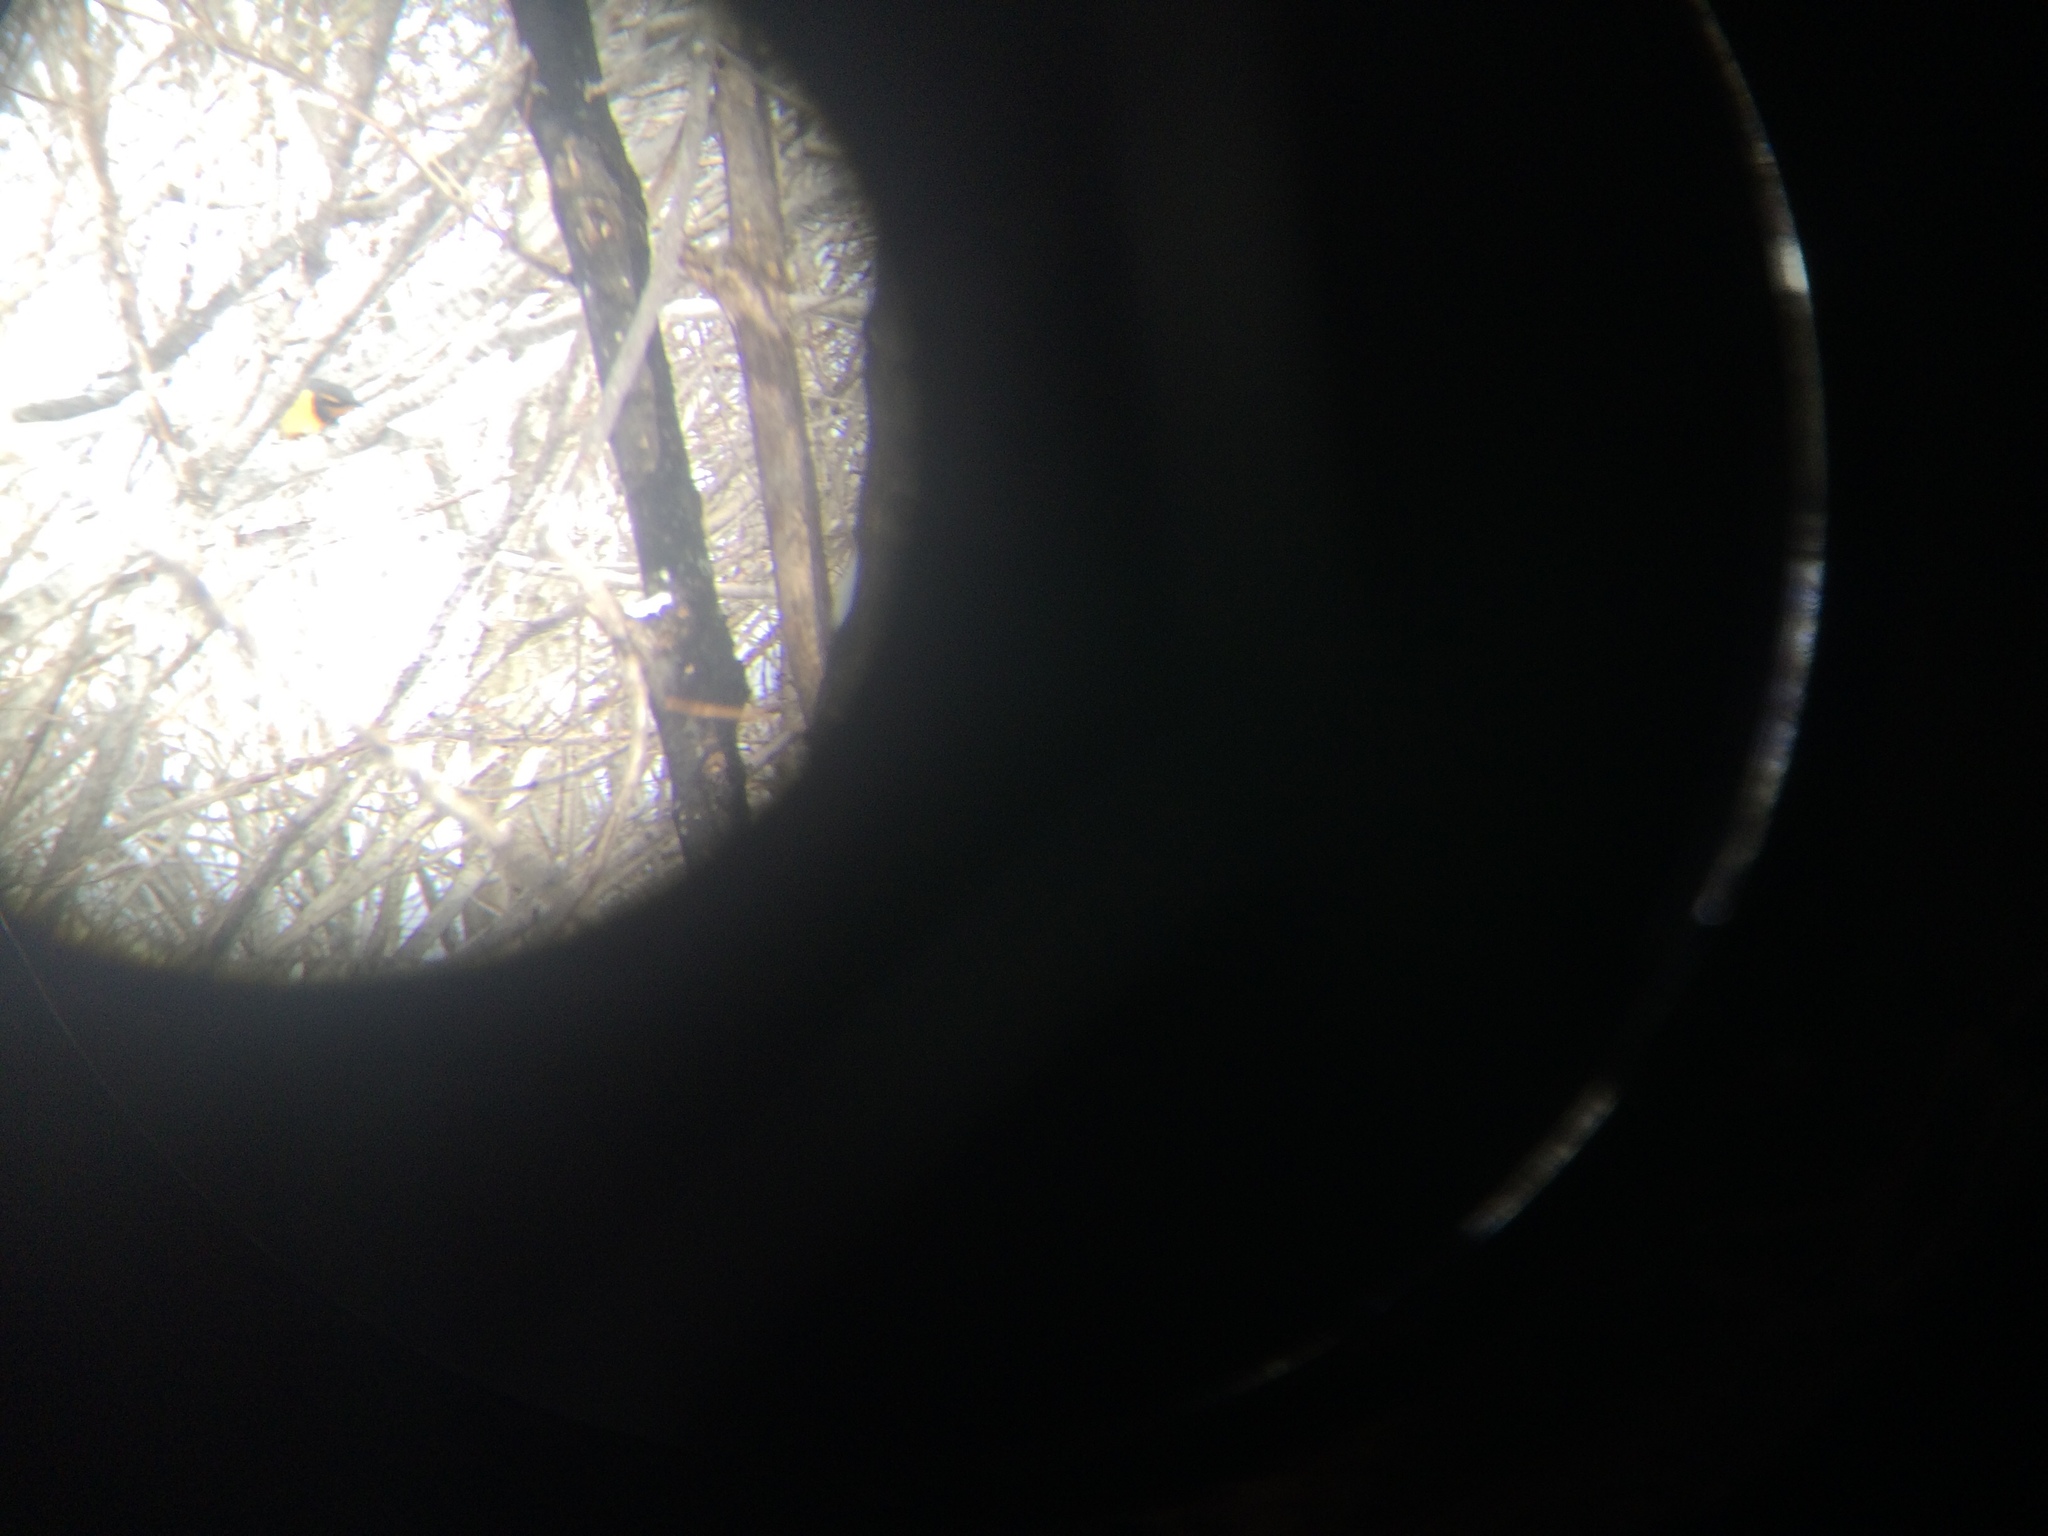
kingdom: Animalia
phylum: Chordata
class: Aves
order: Passeriformes
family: Turdidae
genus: Ixoreus
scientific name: Ixoreus naevius
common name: Varied thrush
